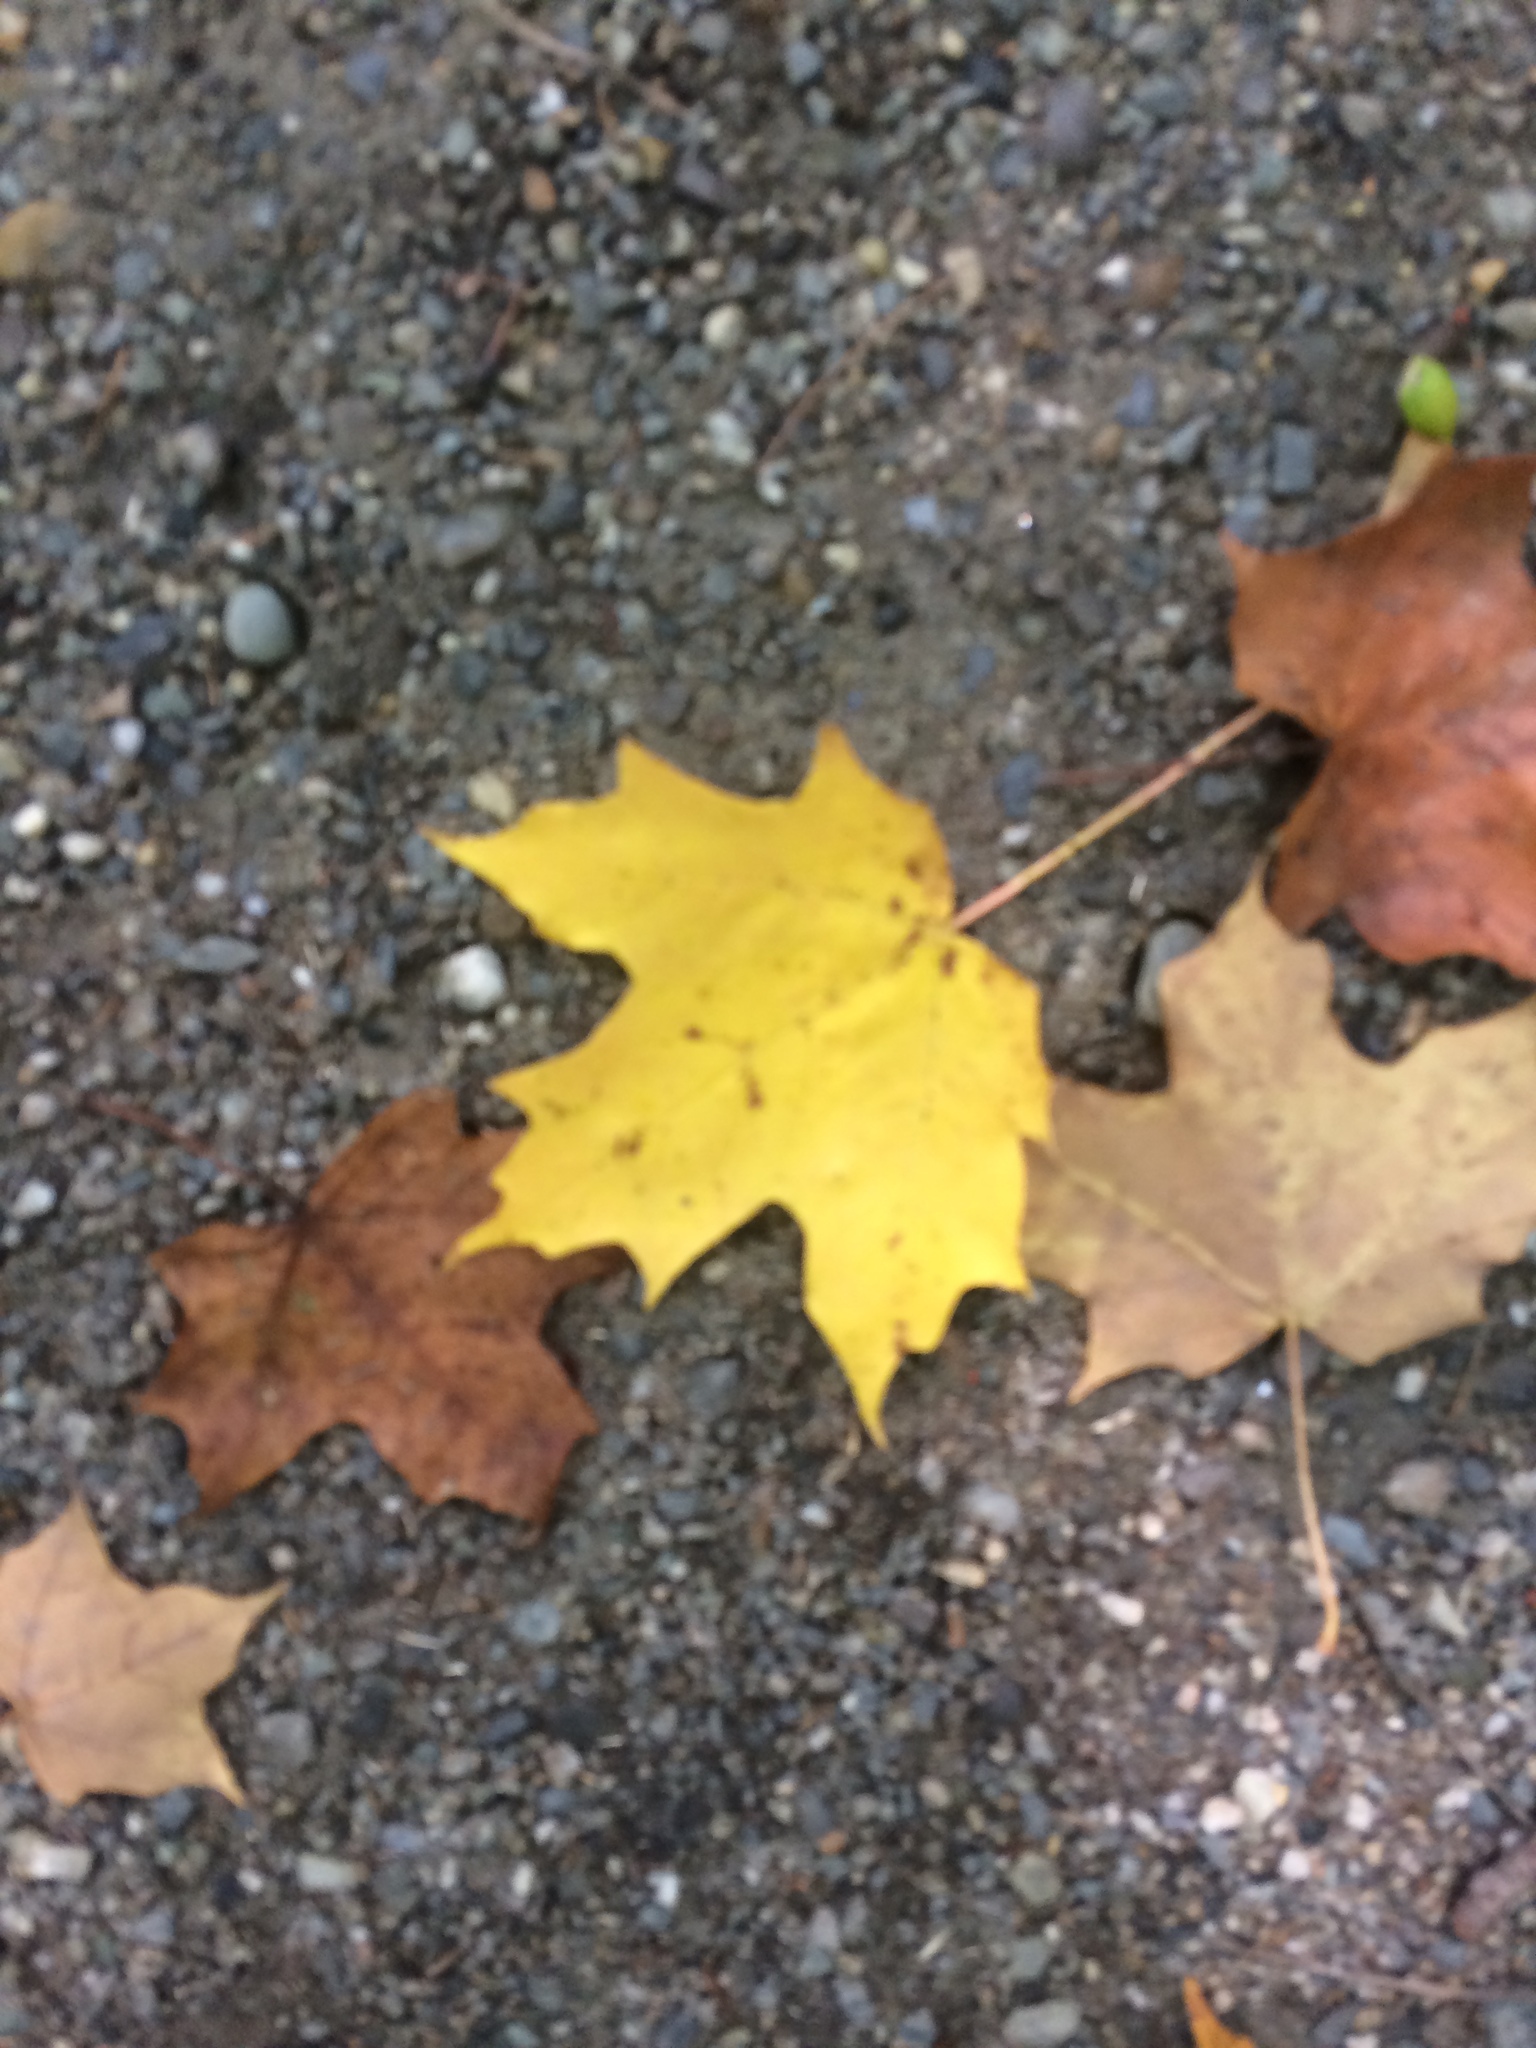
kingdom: Plantae
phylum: Tracheophyta
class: Magnoliopsida
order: Sapindales
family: Sapindaceae
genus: Acer
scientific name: Acer saccharum
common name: Sugar maple
